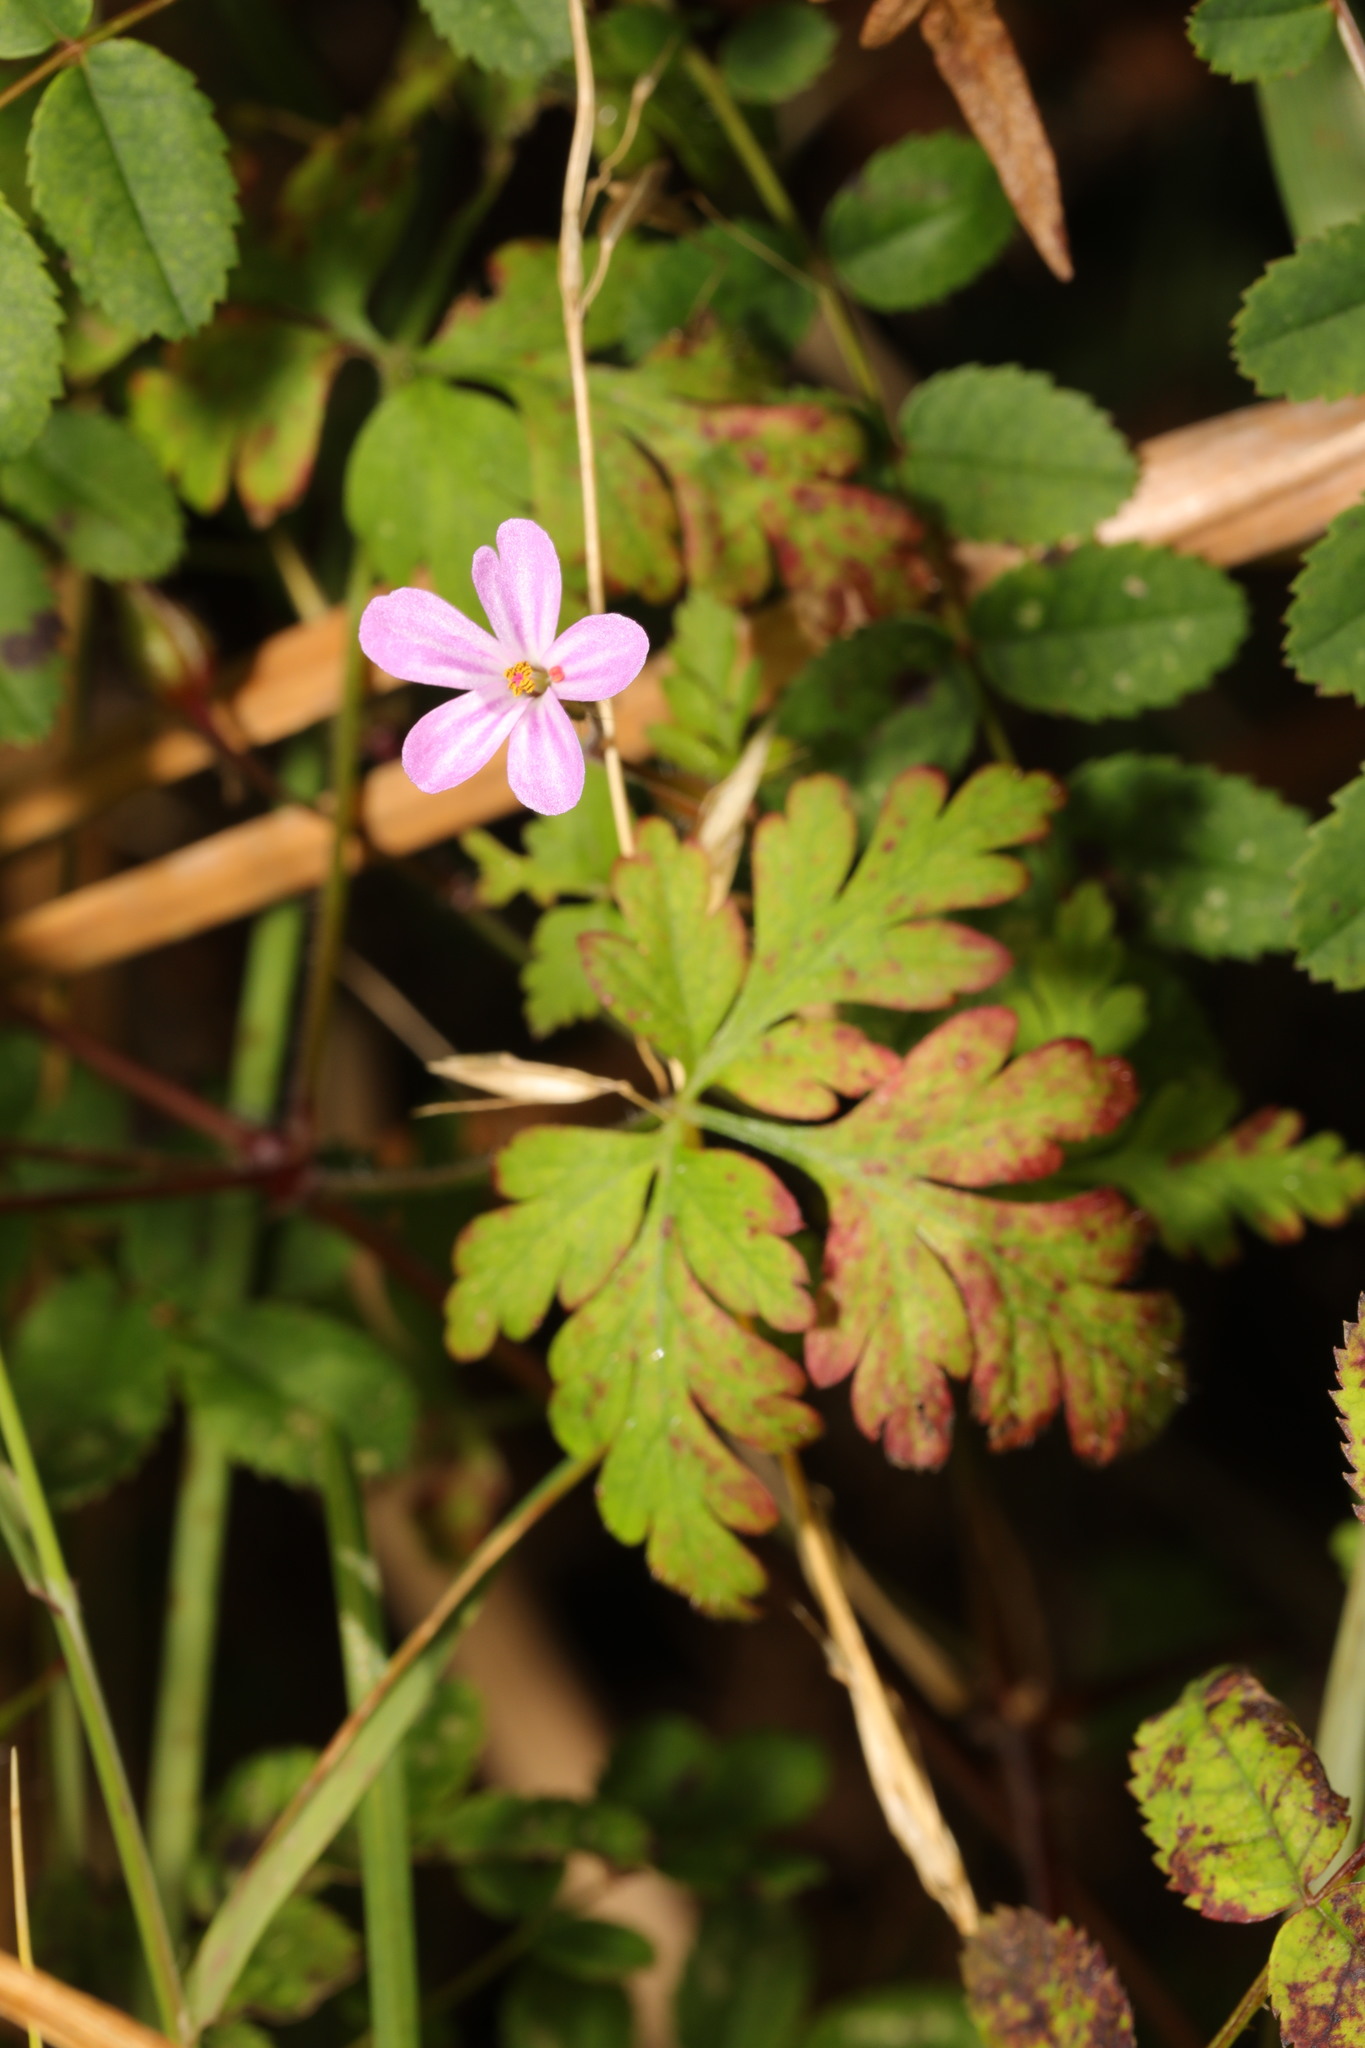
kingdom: Plantae
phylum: Tracheophyta
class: Magnoliopsida
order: Geraniales
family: Geraniaceae
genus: Geranium
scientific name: Geranium robertianum
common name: Herb-robert
